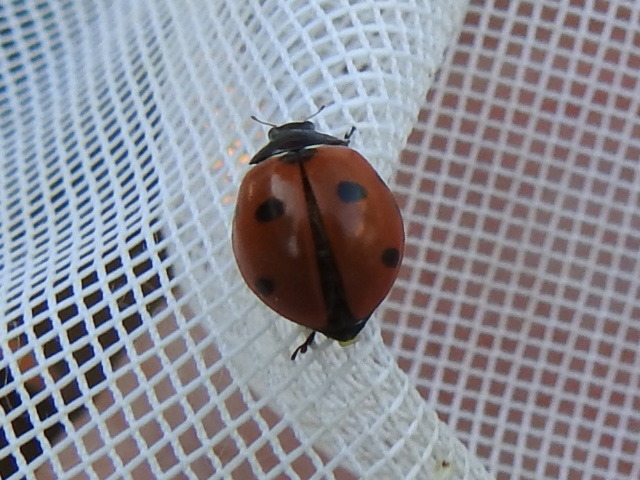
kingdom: Animalia
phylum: Arthropoda
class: Insecta
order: Coleoptera
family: Coccinellidae
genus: Coccinella
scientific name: Coccinella septempunctata
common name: Sevenspotted lady beetle
